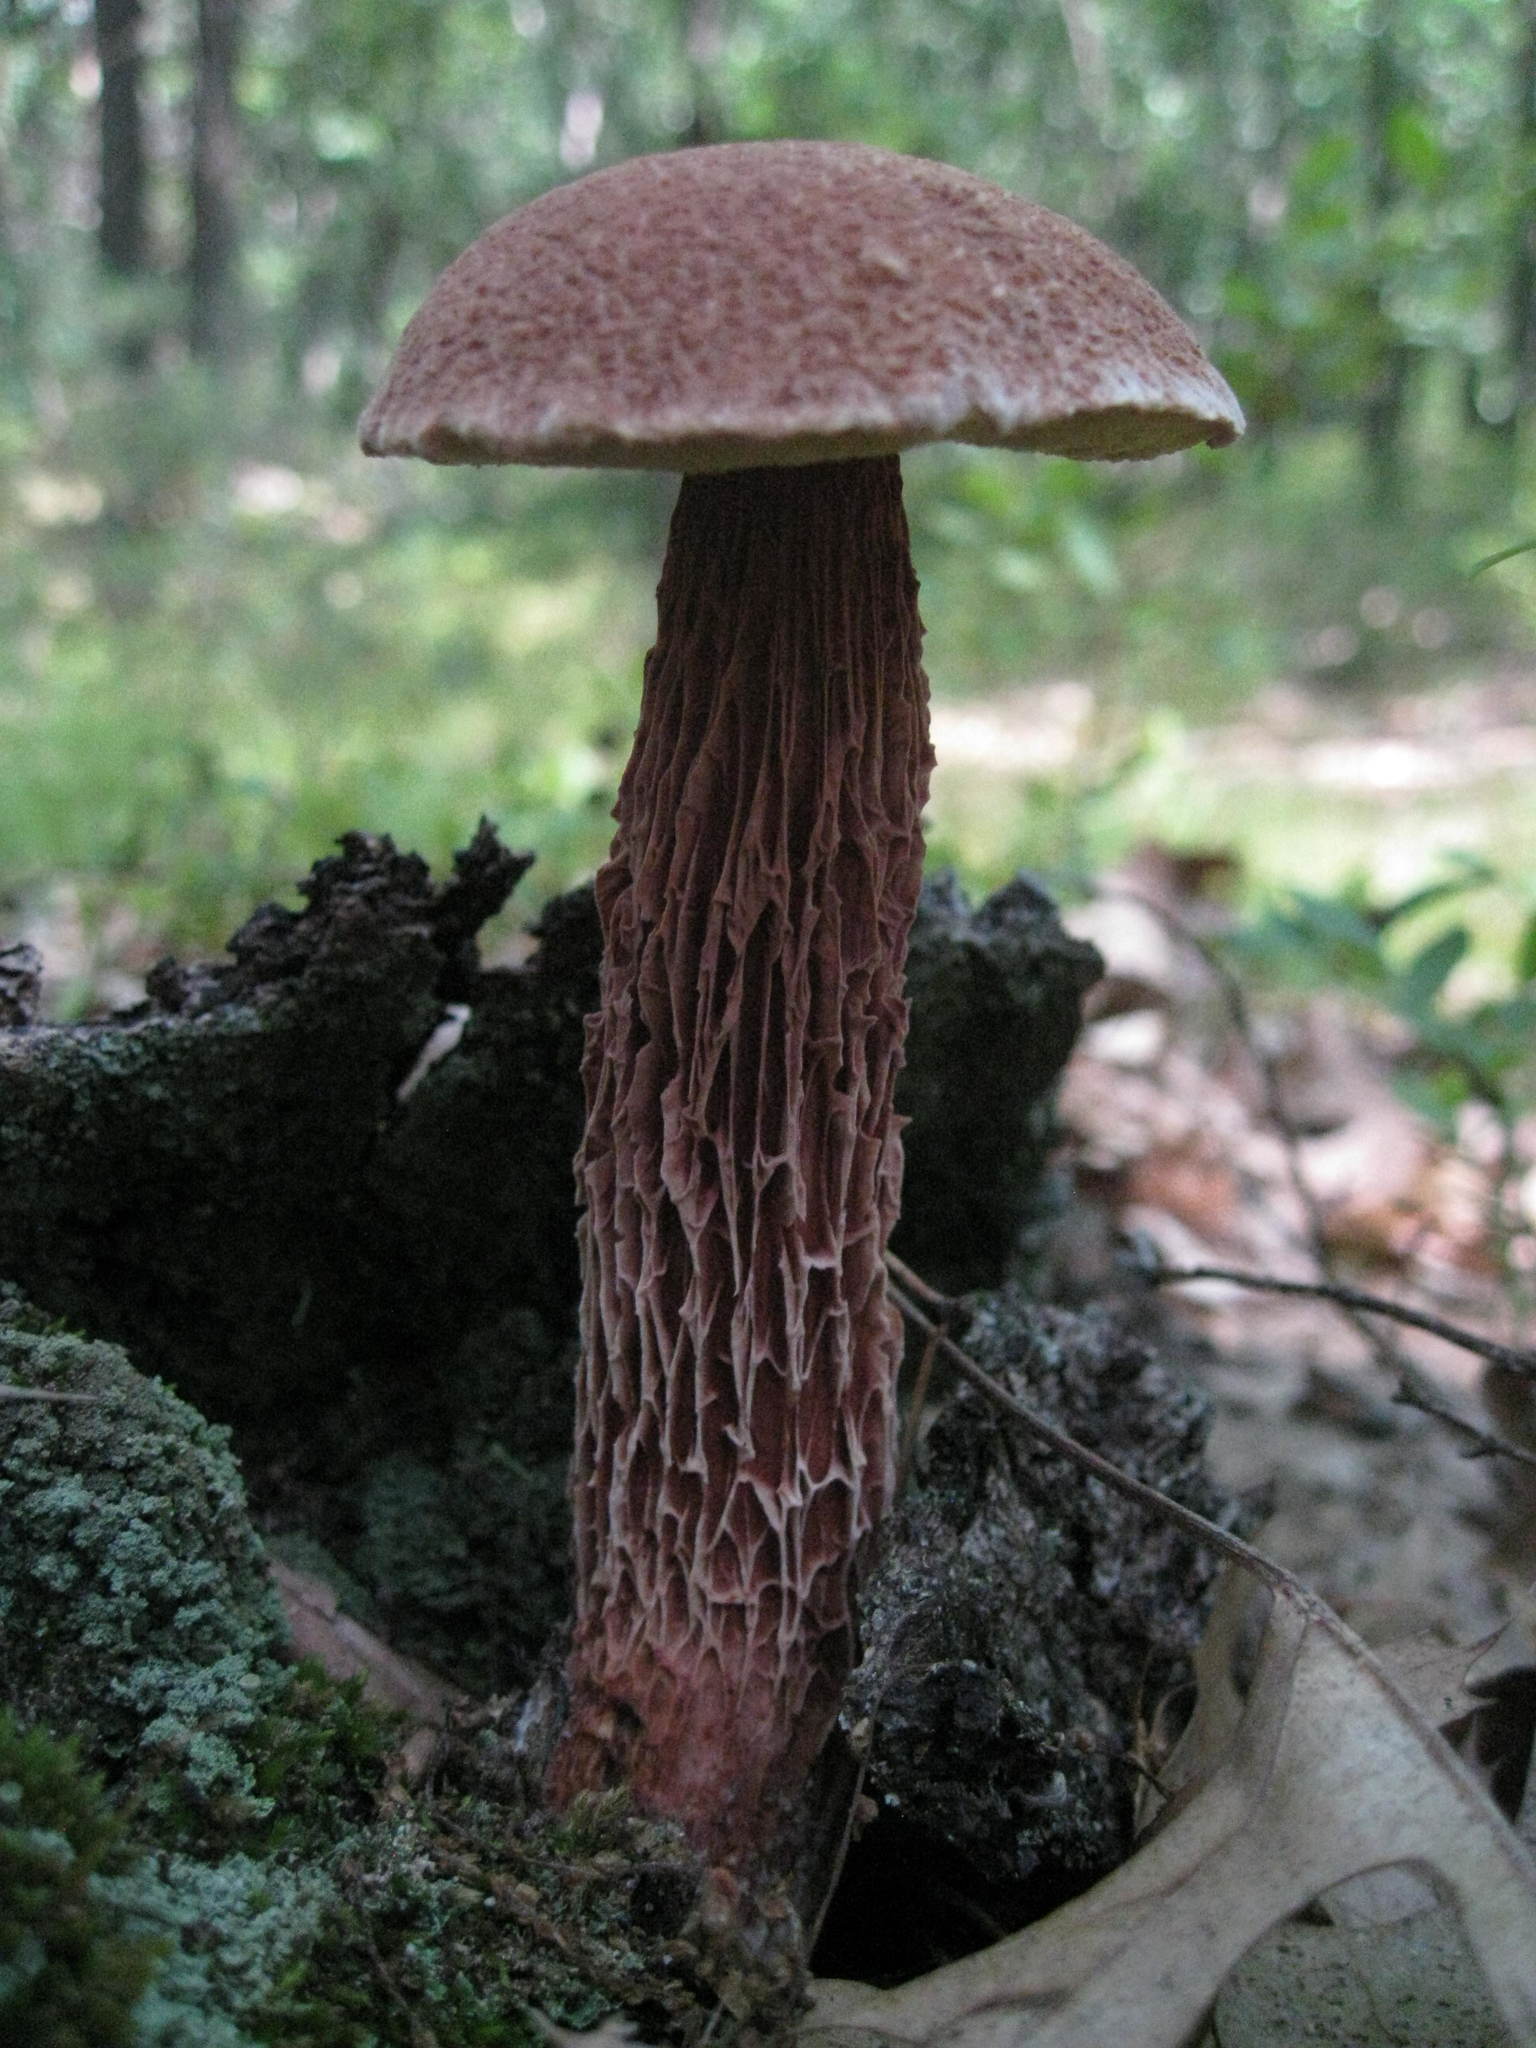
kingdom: Fungi
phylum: Basidiomycota
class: Agaricomycetes
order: Boletales
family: Boletaceae
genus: Aureoboletus
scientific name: Aureoboletus russellii
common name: Russell's bolete
